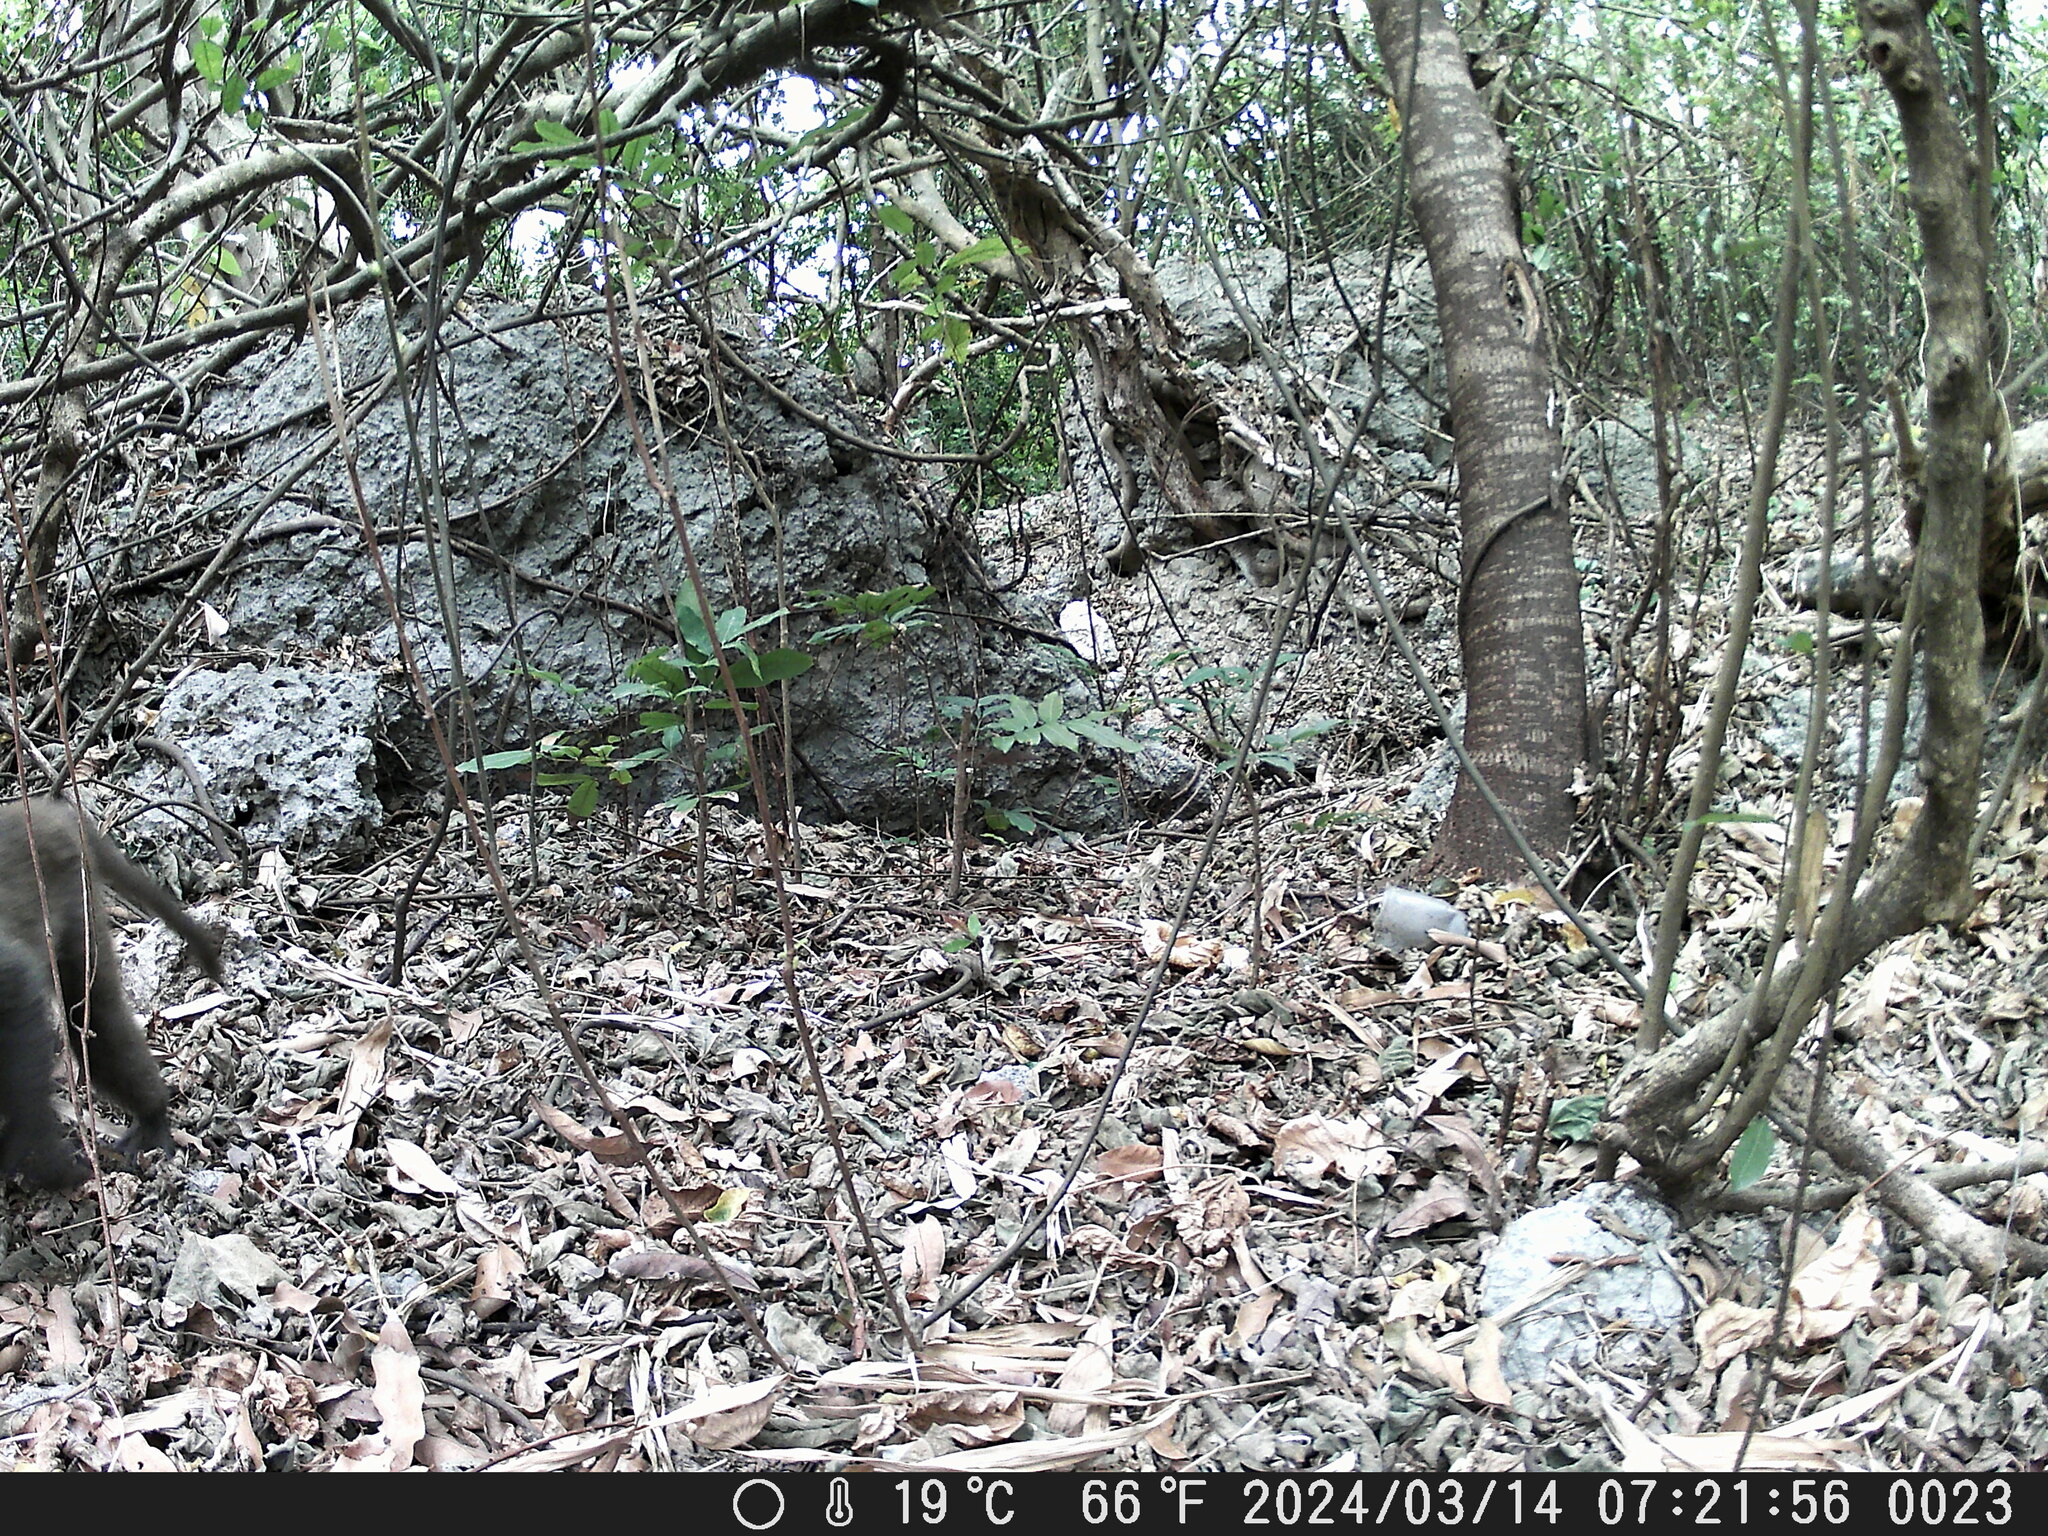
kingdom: Animalia
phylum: Chordata
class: Mammalia
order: Primates
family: Cercopithecidae
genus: Macaca
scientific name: Macaca cyclopis
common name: Formosan rock macaque
